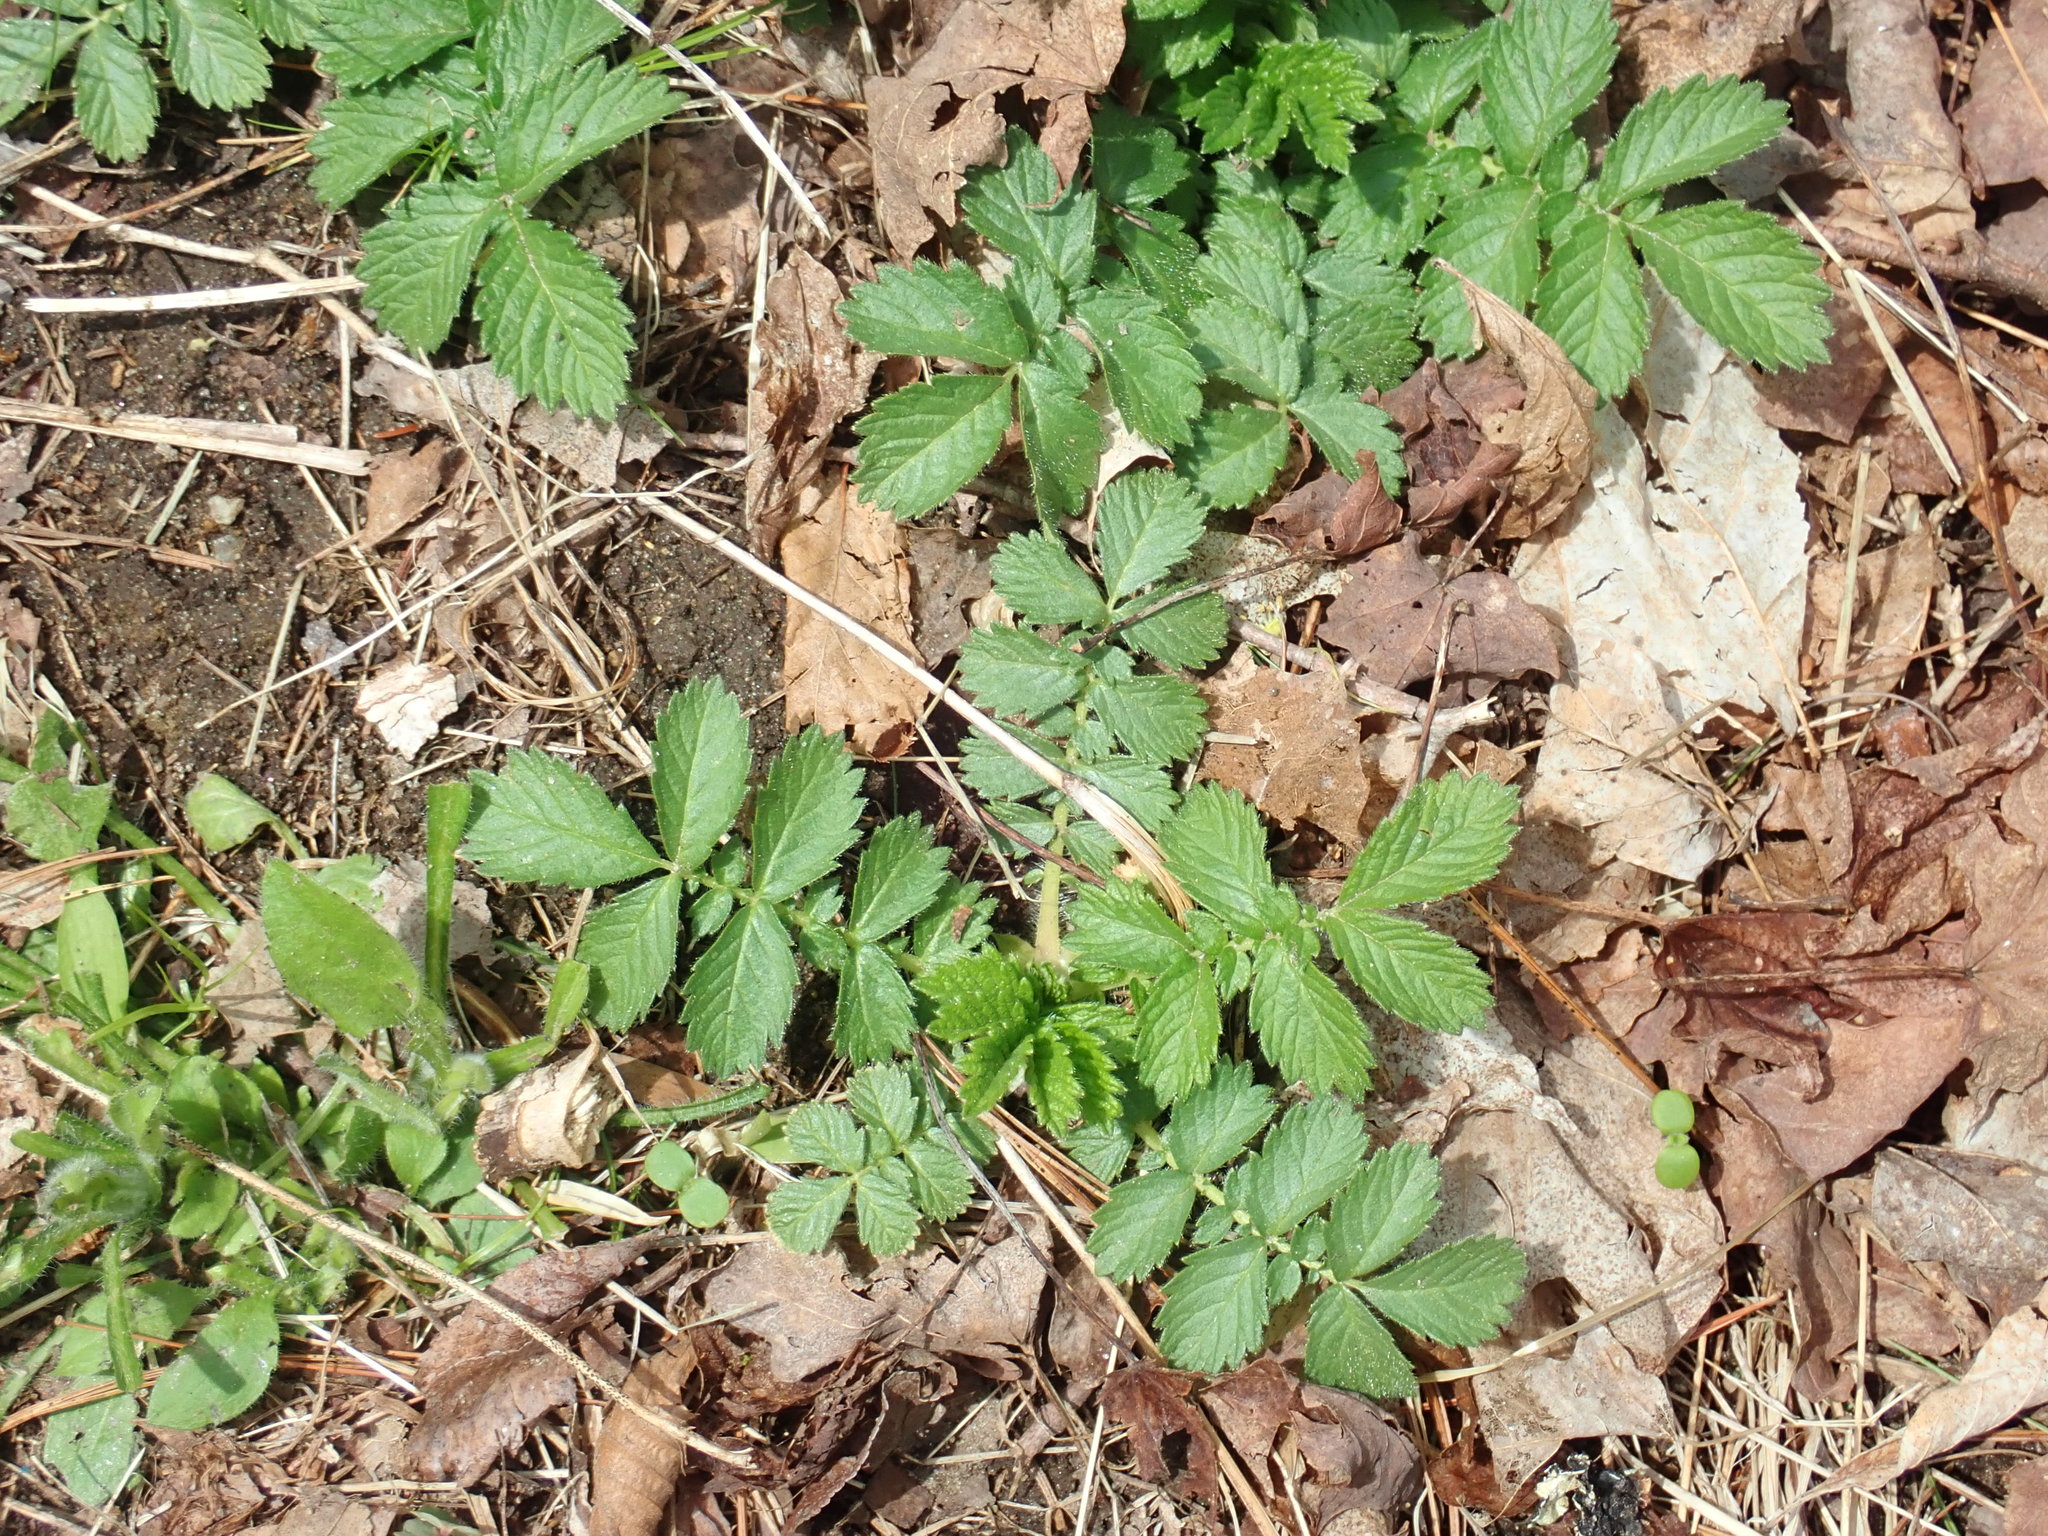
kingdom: Plantae
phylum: Tracheophyta
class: Magnoliopsida
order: Rosales
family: Rosaceae
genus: Agrimonia
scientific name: Agrimonia
